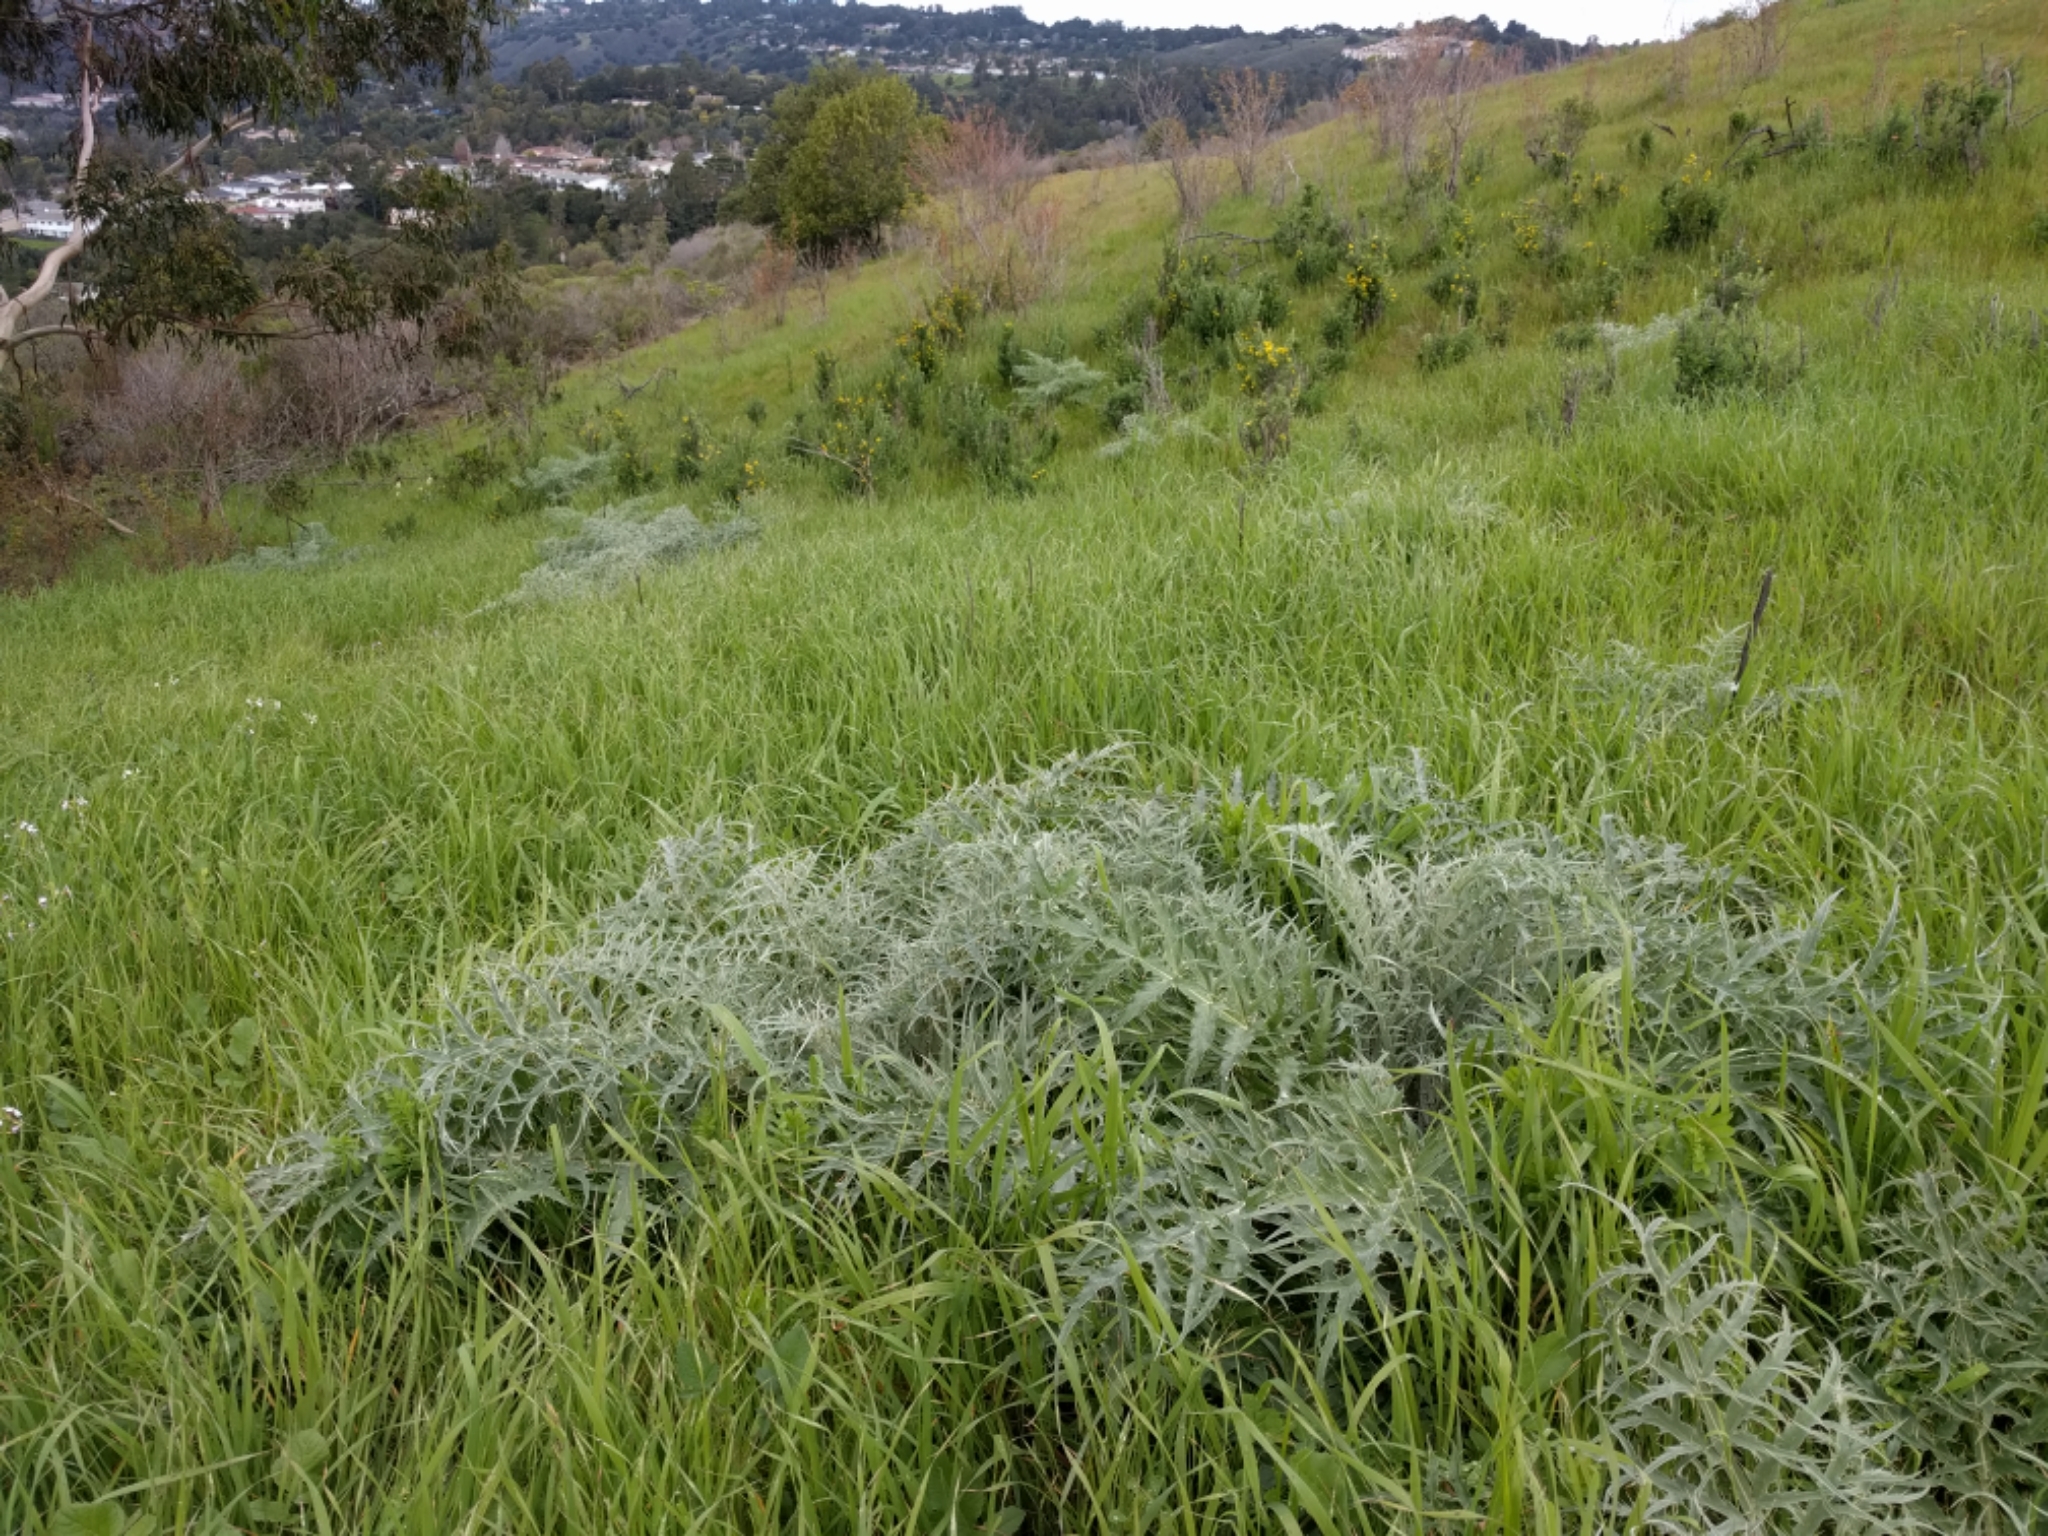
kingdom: Plantae
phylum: Tracheophyta
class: Magnoliopsida
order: Asterales
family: Asteraceae
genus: Cynara
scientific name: Cynara cardunculus
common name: Globe artichoke
